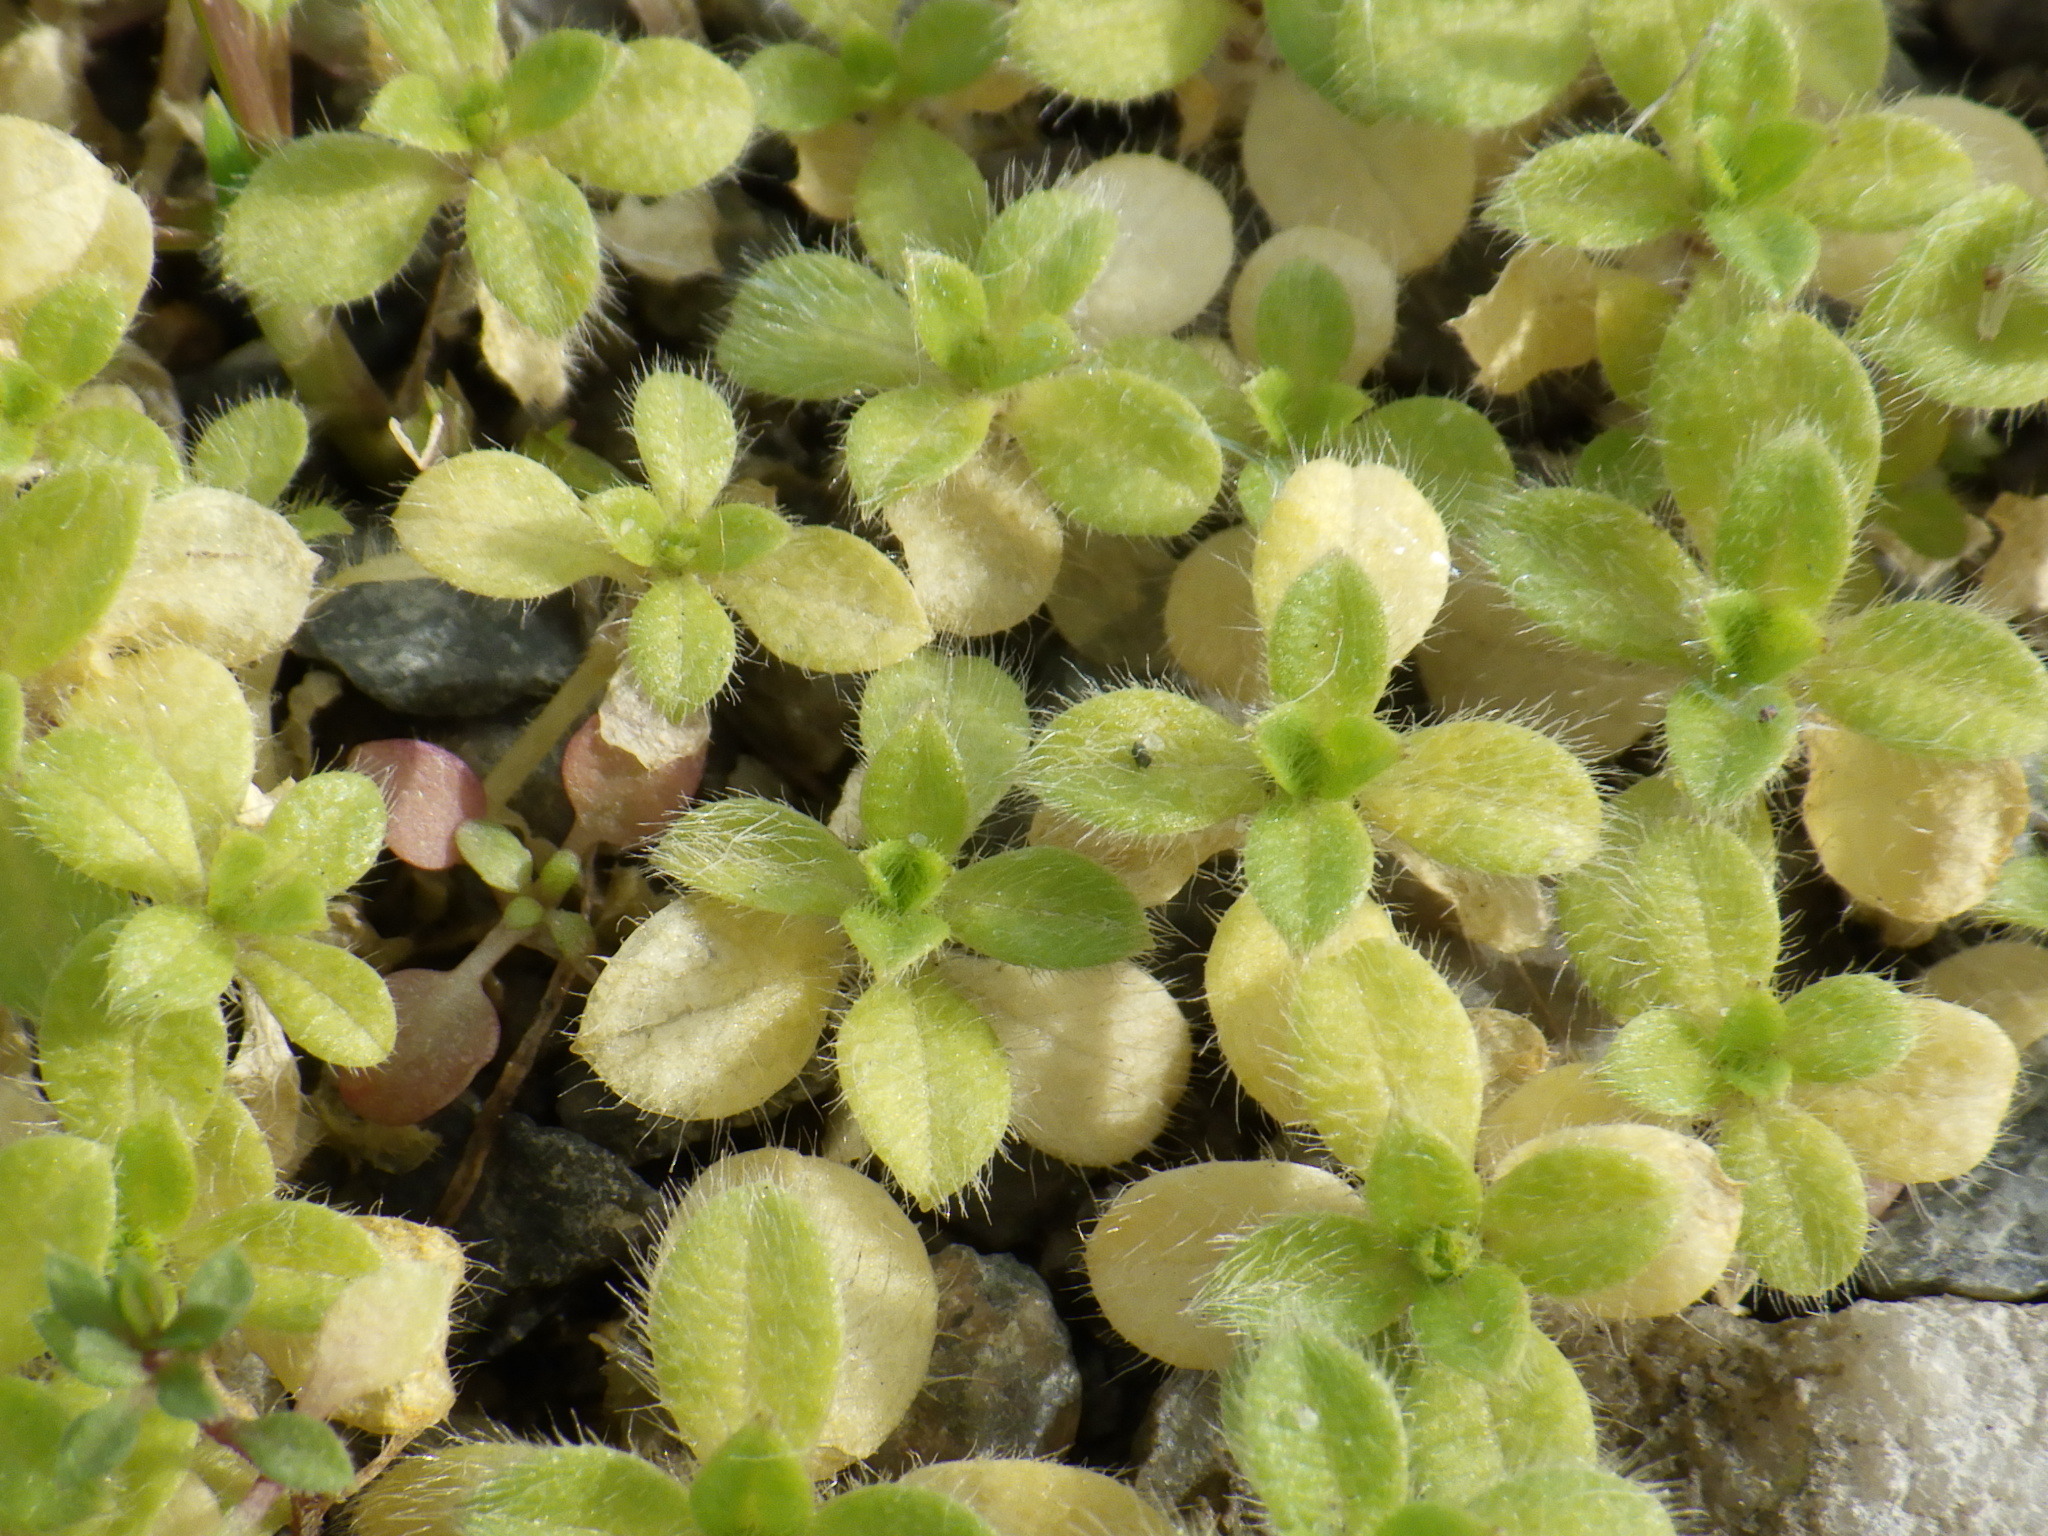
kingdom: Plantae
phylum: Tracheophyta
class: Magnoliopsida
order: Caryophyllales
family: Caryophyllaceae
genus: Cerastium
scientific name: Cerastium fontanum
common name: Common mouse-ear
